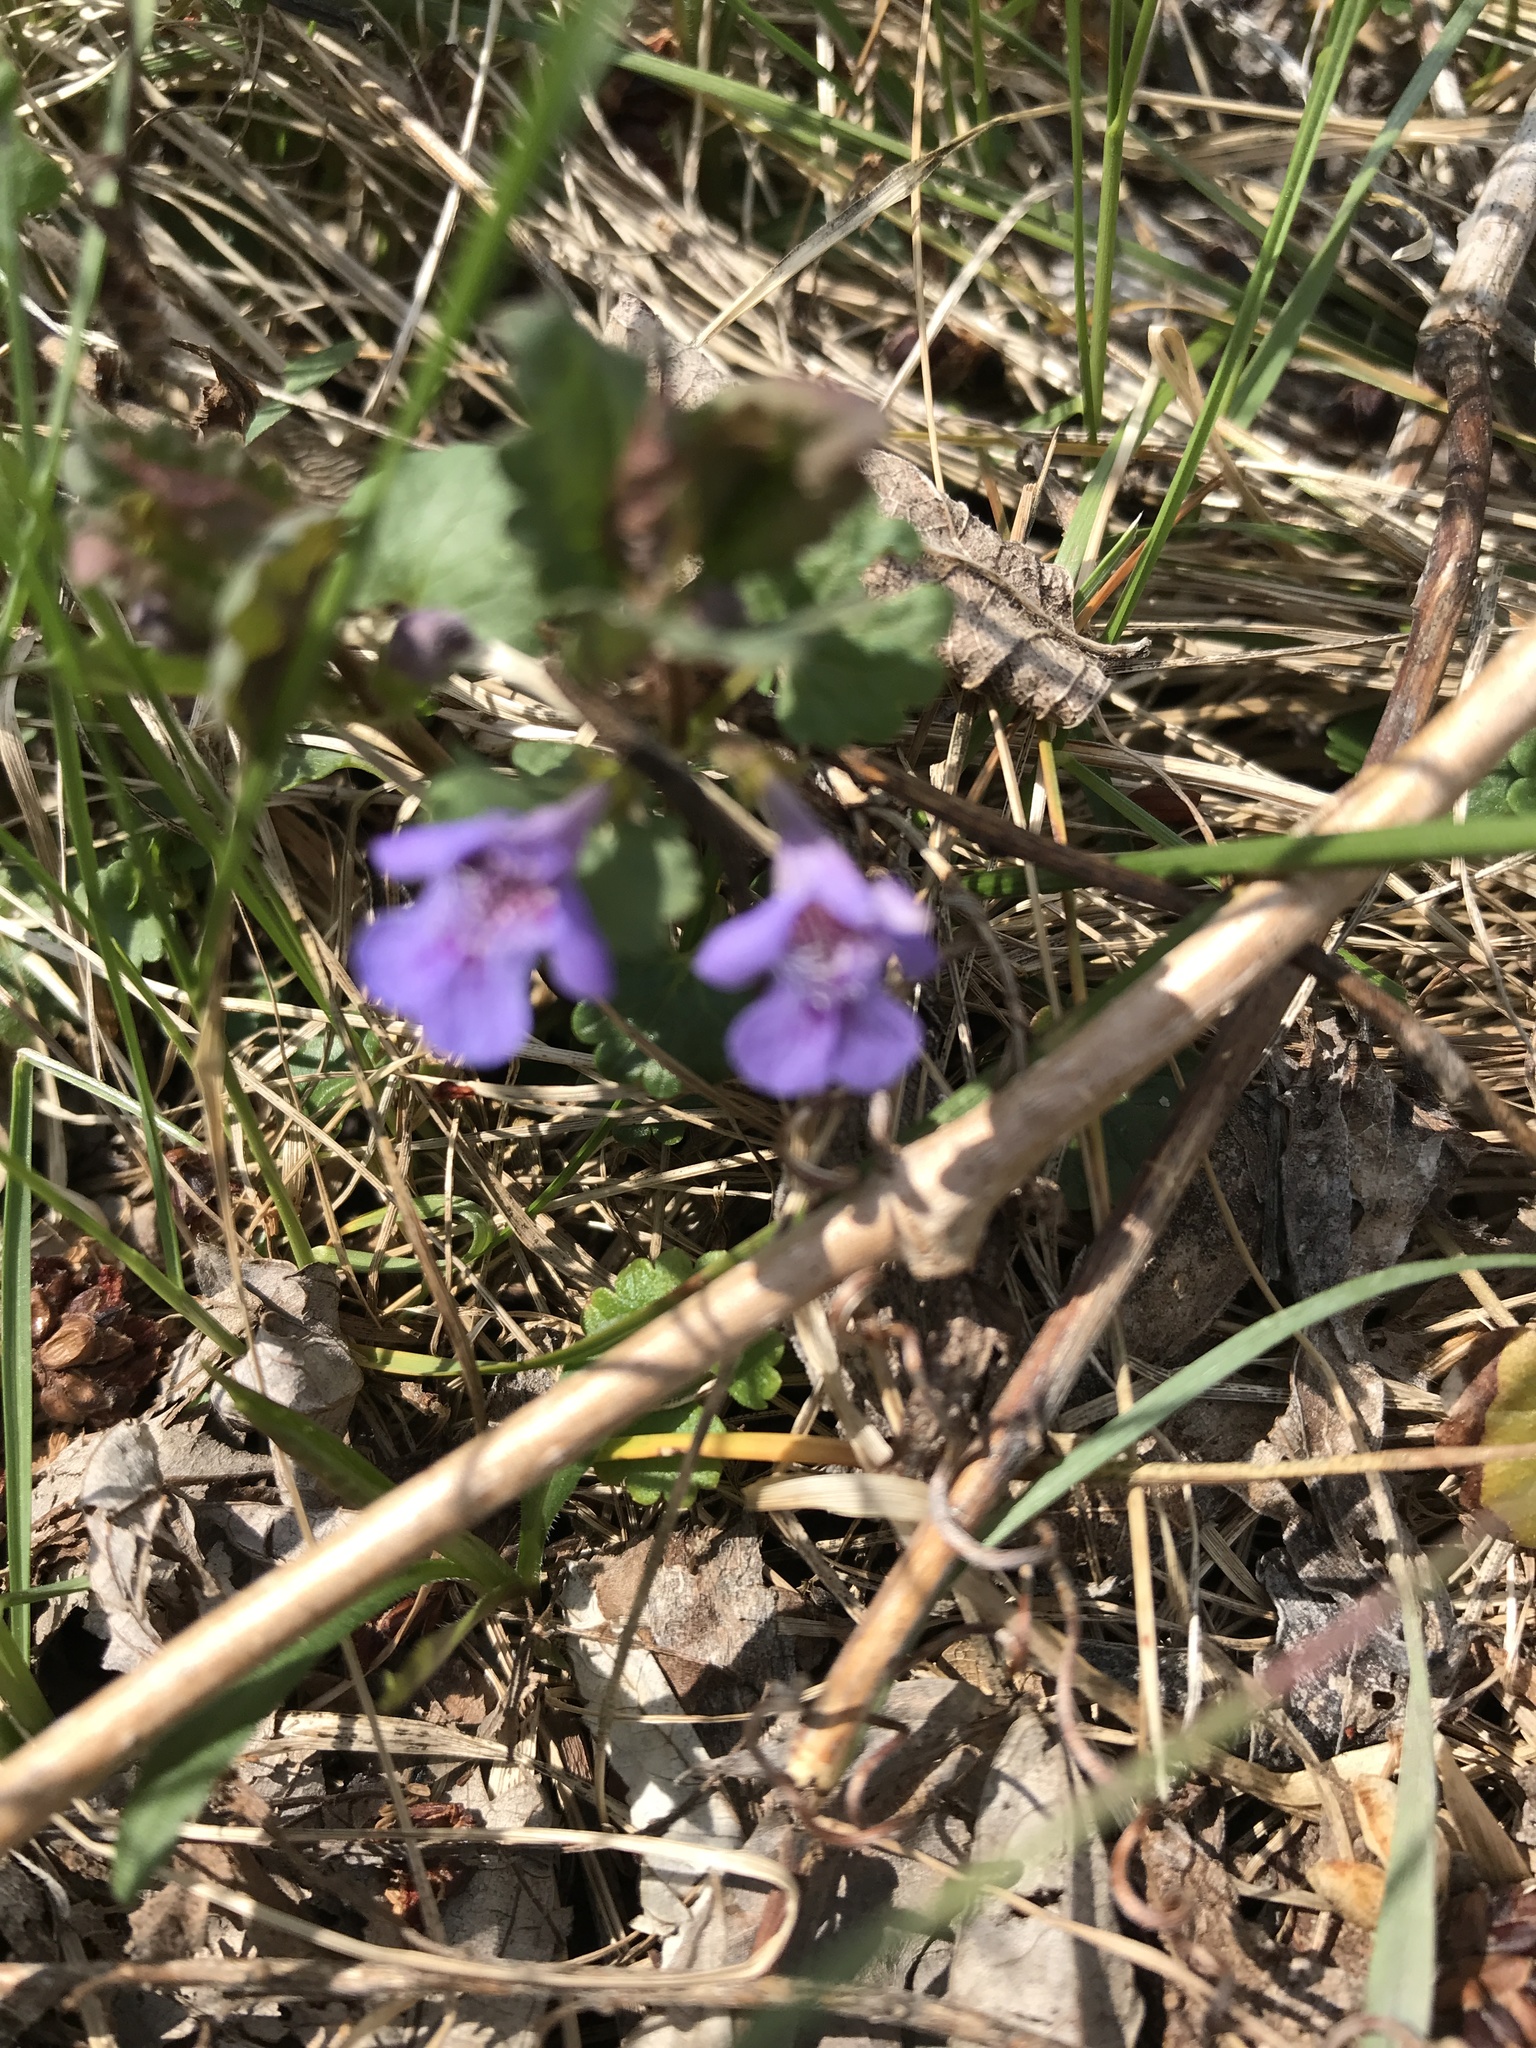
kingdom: Plantae
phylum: Tracheophyta
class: Magnoliopsida
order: Lamiales
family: Lamiaceae
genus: Glechoma
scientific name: Glechoma hederacea
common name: Ground ivy
